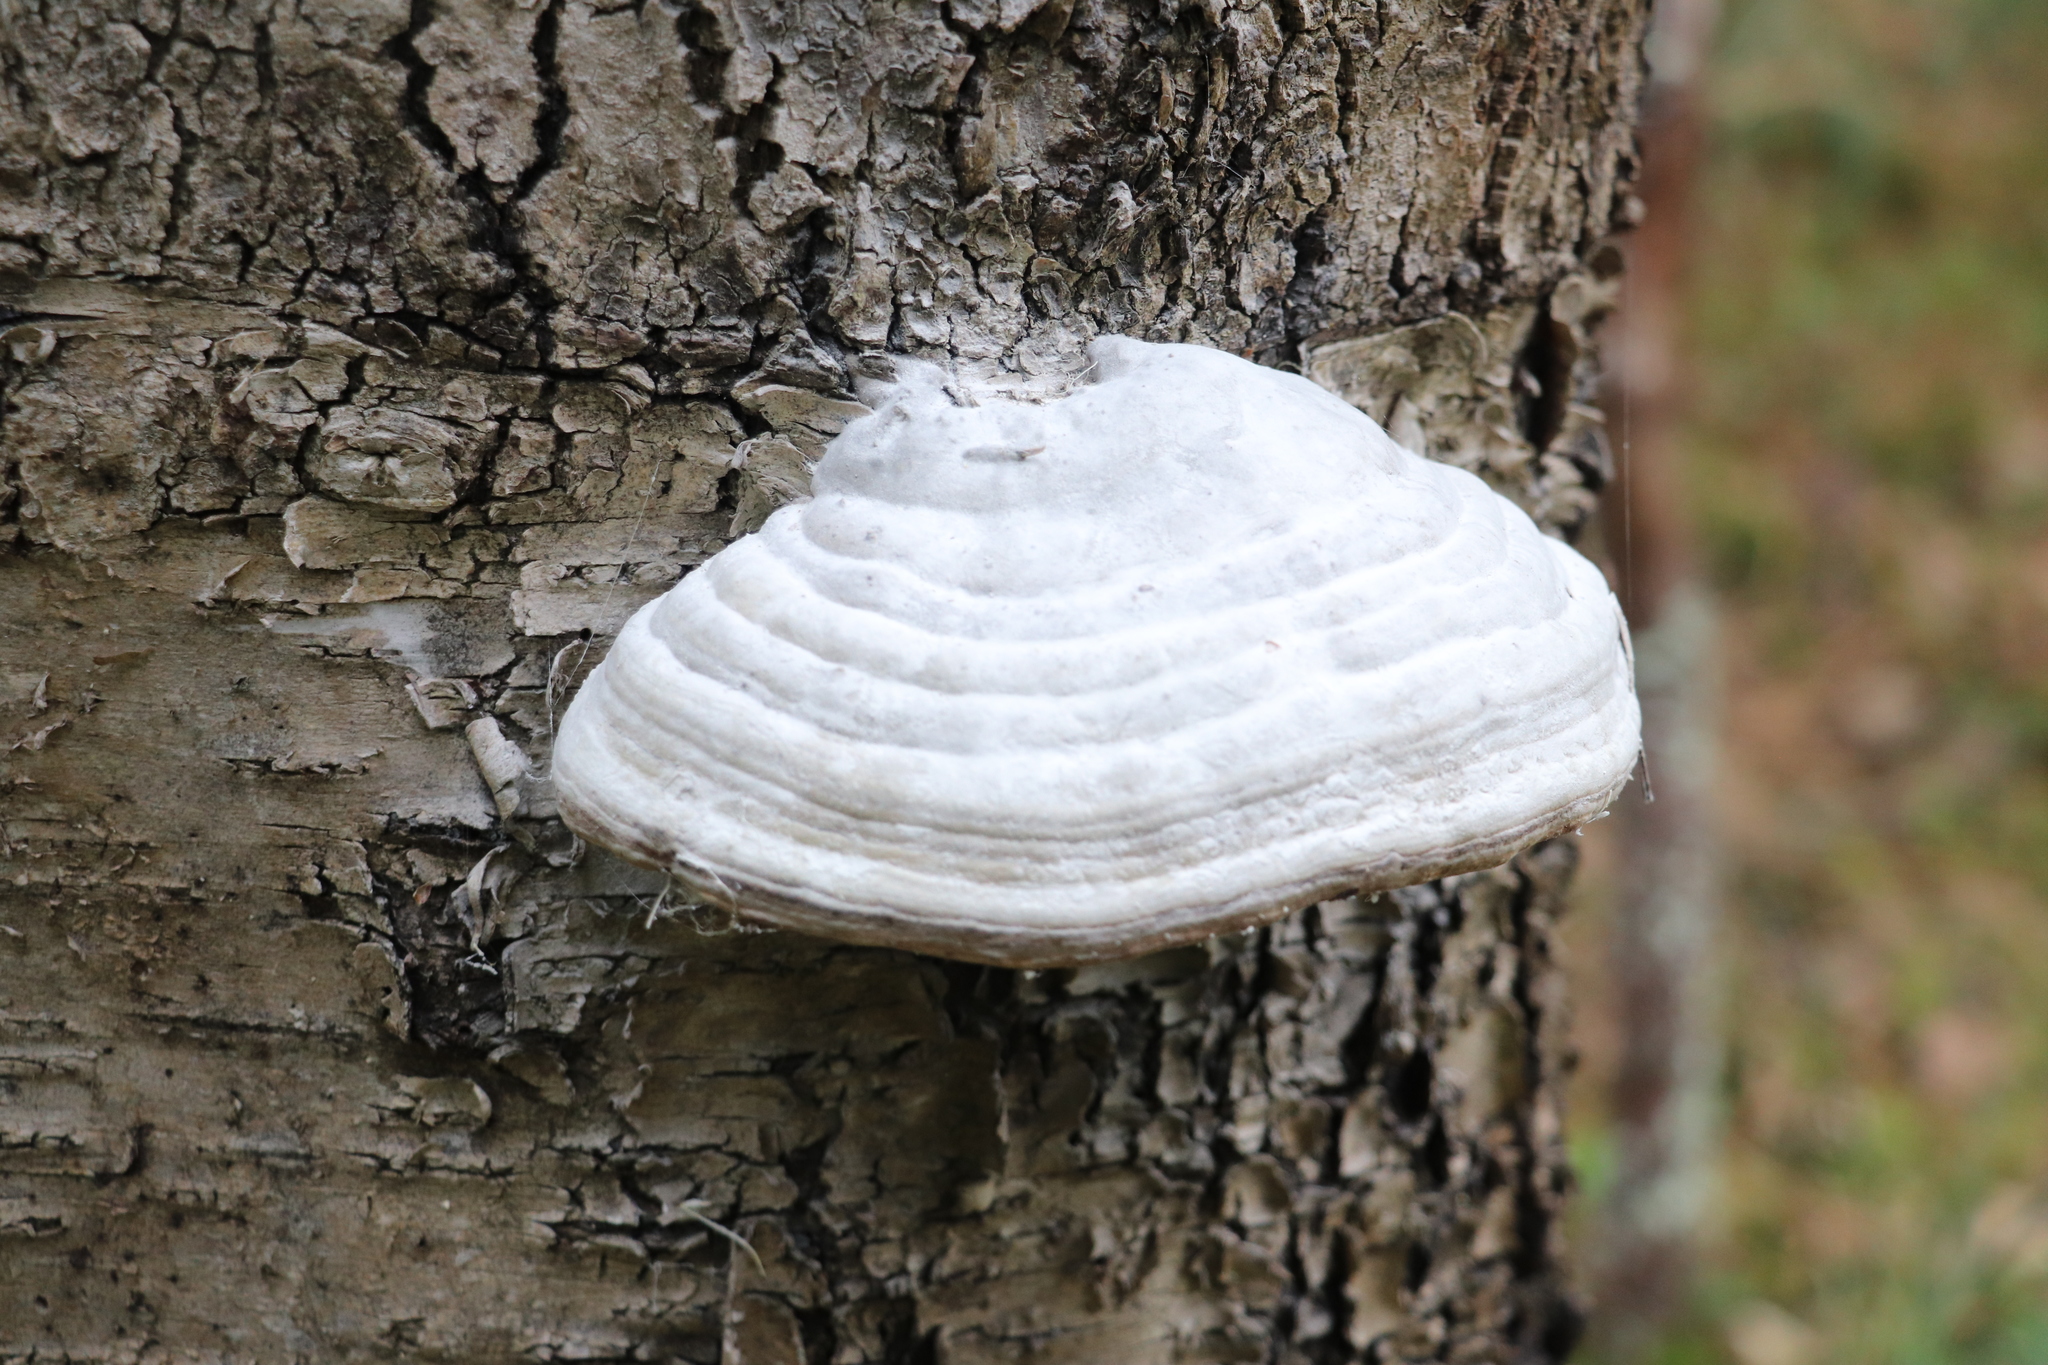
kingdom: Fungi
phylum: Basidiomycota
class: Agaricomycetes
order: Polyporales
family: Polyporaceae
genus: Fomes
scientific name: Fomes fomentarius
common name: Hoof fungus
